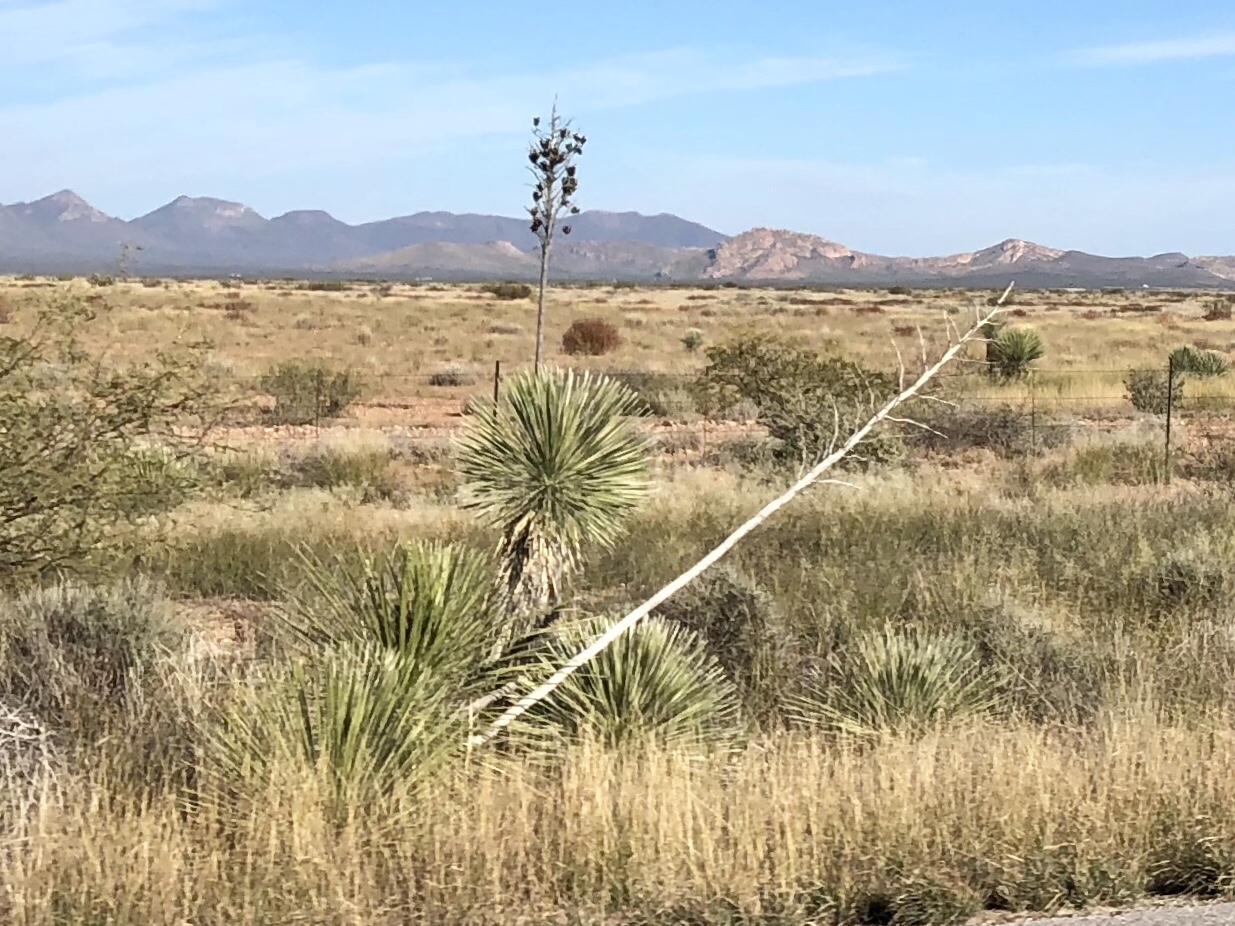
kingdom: Plantae
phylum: Tracheophyta
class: Liliopsida
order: Asparagales
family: Asparagaceae
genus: Yucca
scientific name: Yucca elata
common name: Palmella
